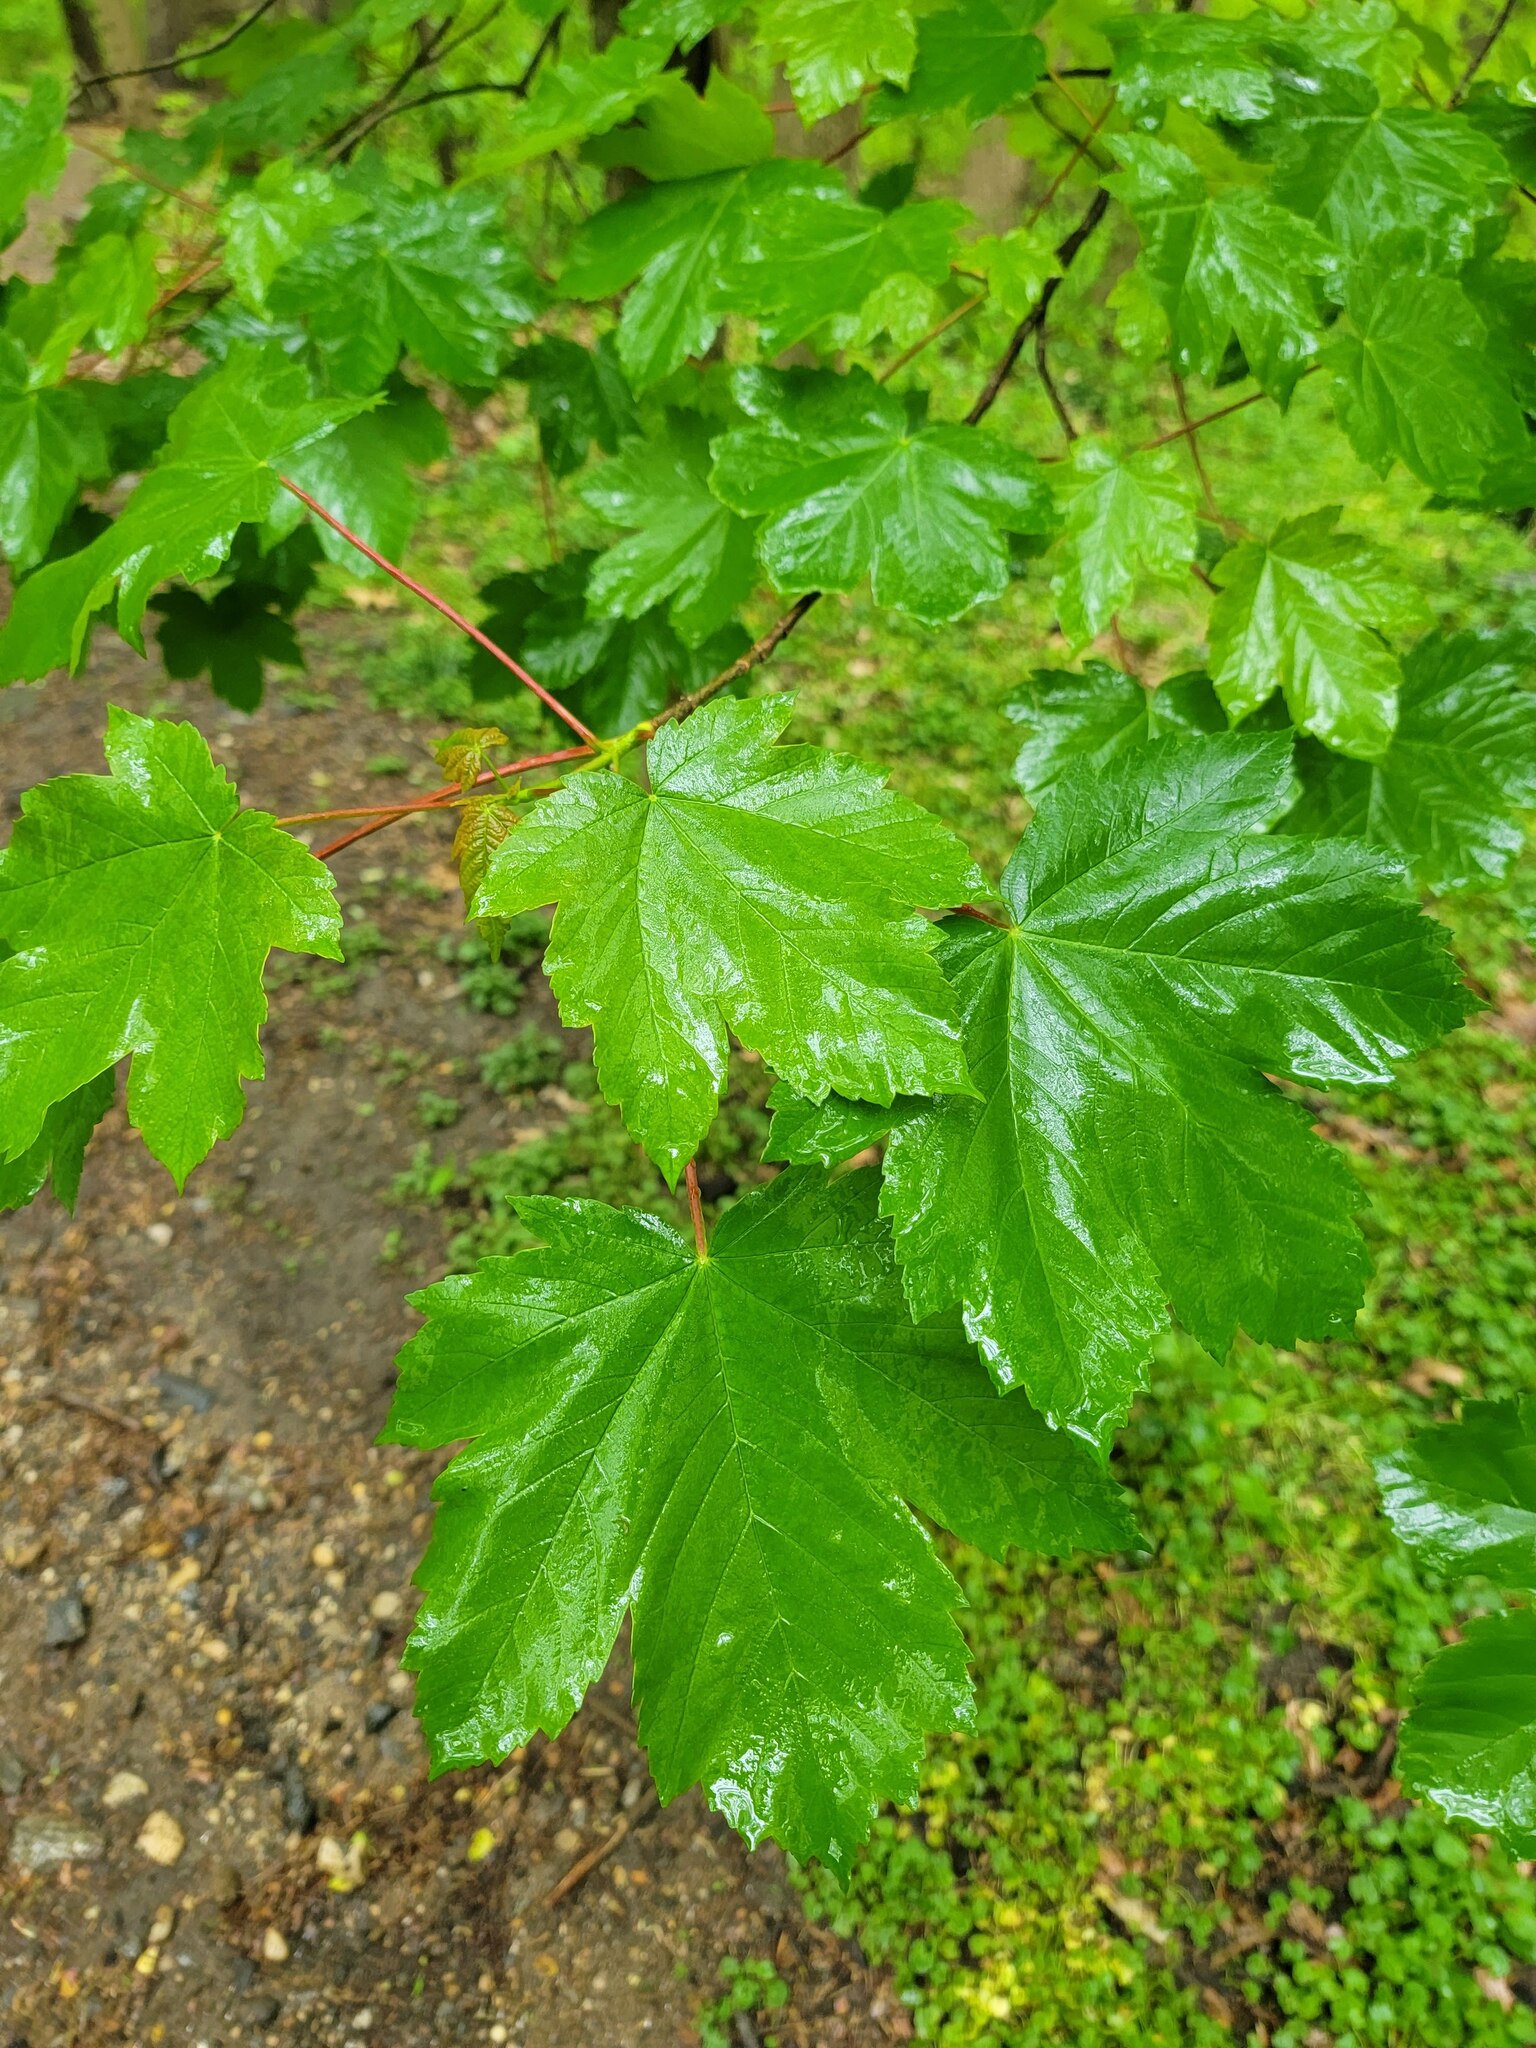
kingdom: Plantae
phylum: Tracheophyta
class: Magnoliopsida
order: Sapindales
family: Sapindaceae
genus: Acer
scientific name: Acer pseudoplatanus
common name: Sycamore
